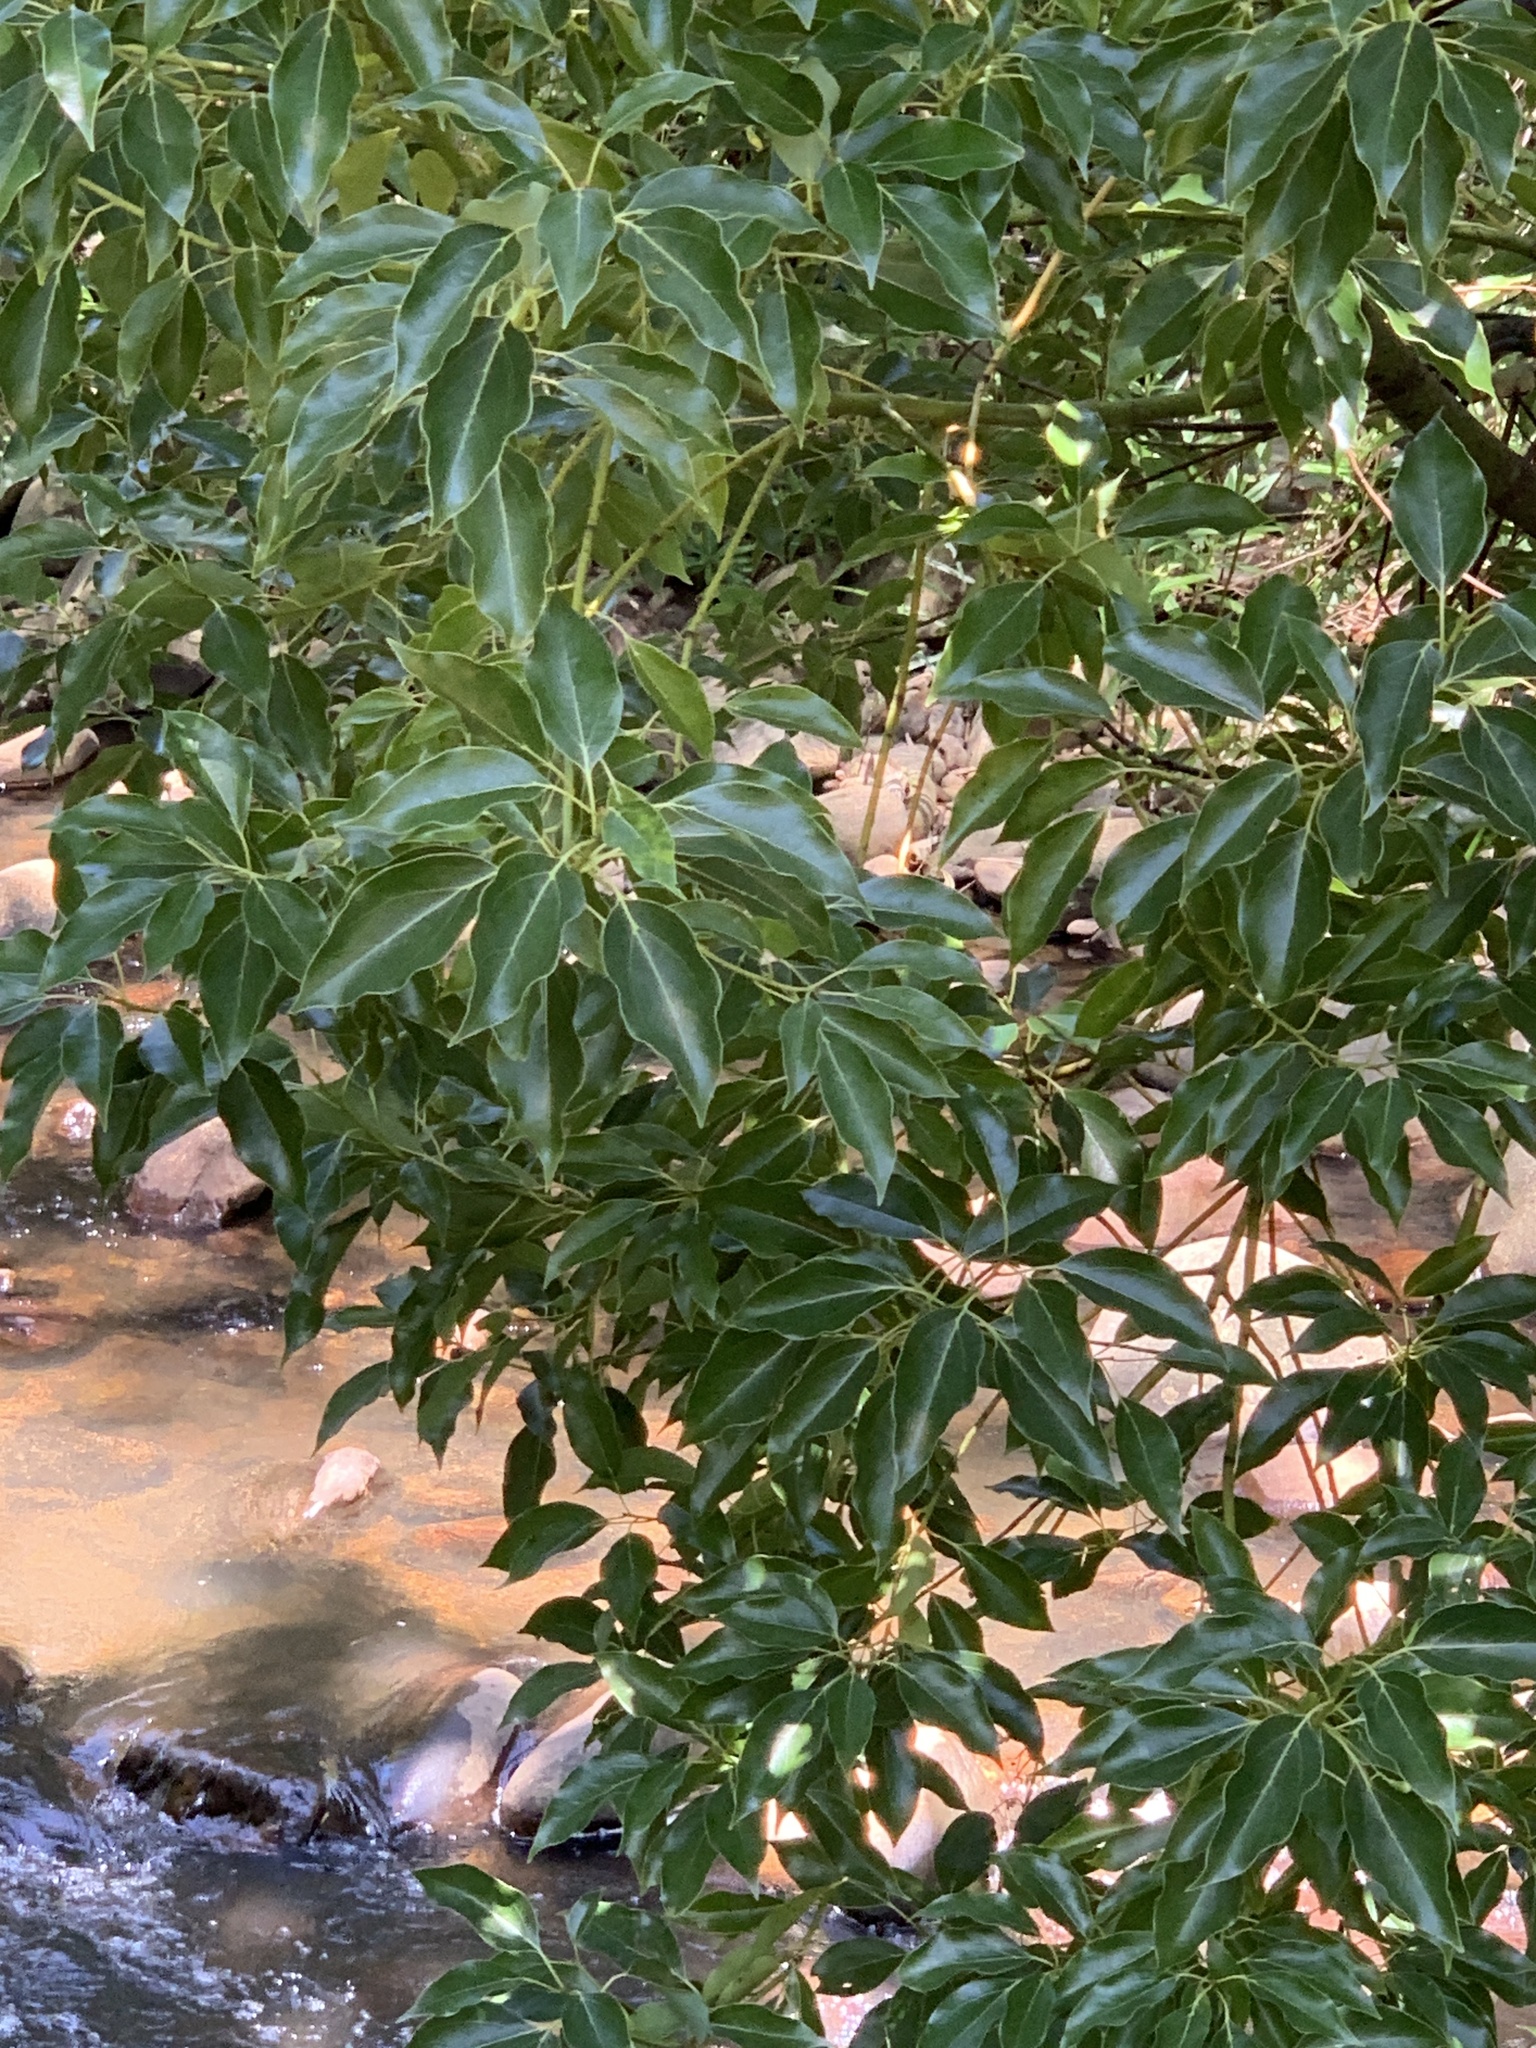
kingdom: Plantae
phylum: Tracheophyta
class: Magnoliopsida
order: Laurales
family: Lauraceae
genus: Cinnamomum
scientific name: Cinnamomum camphora
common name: Camphortree
